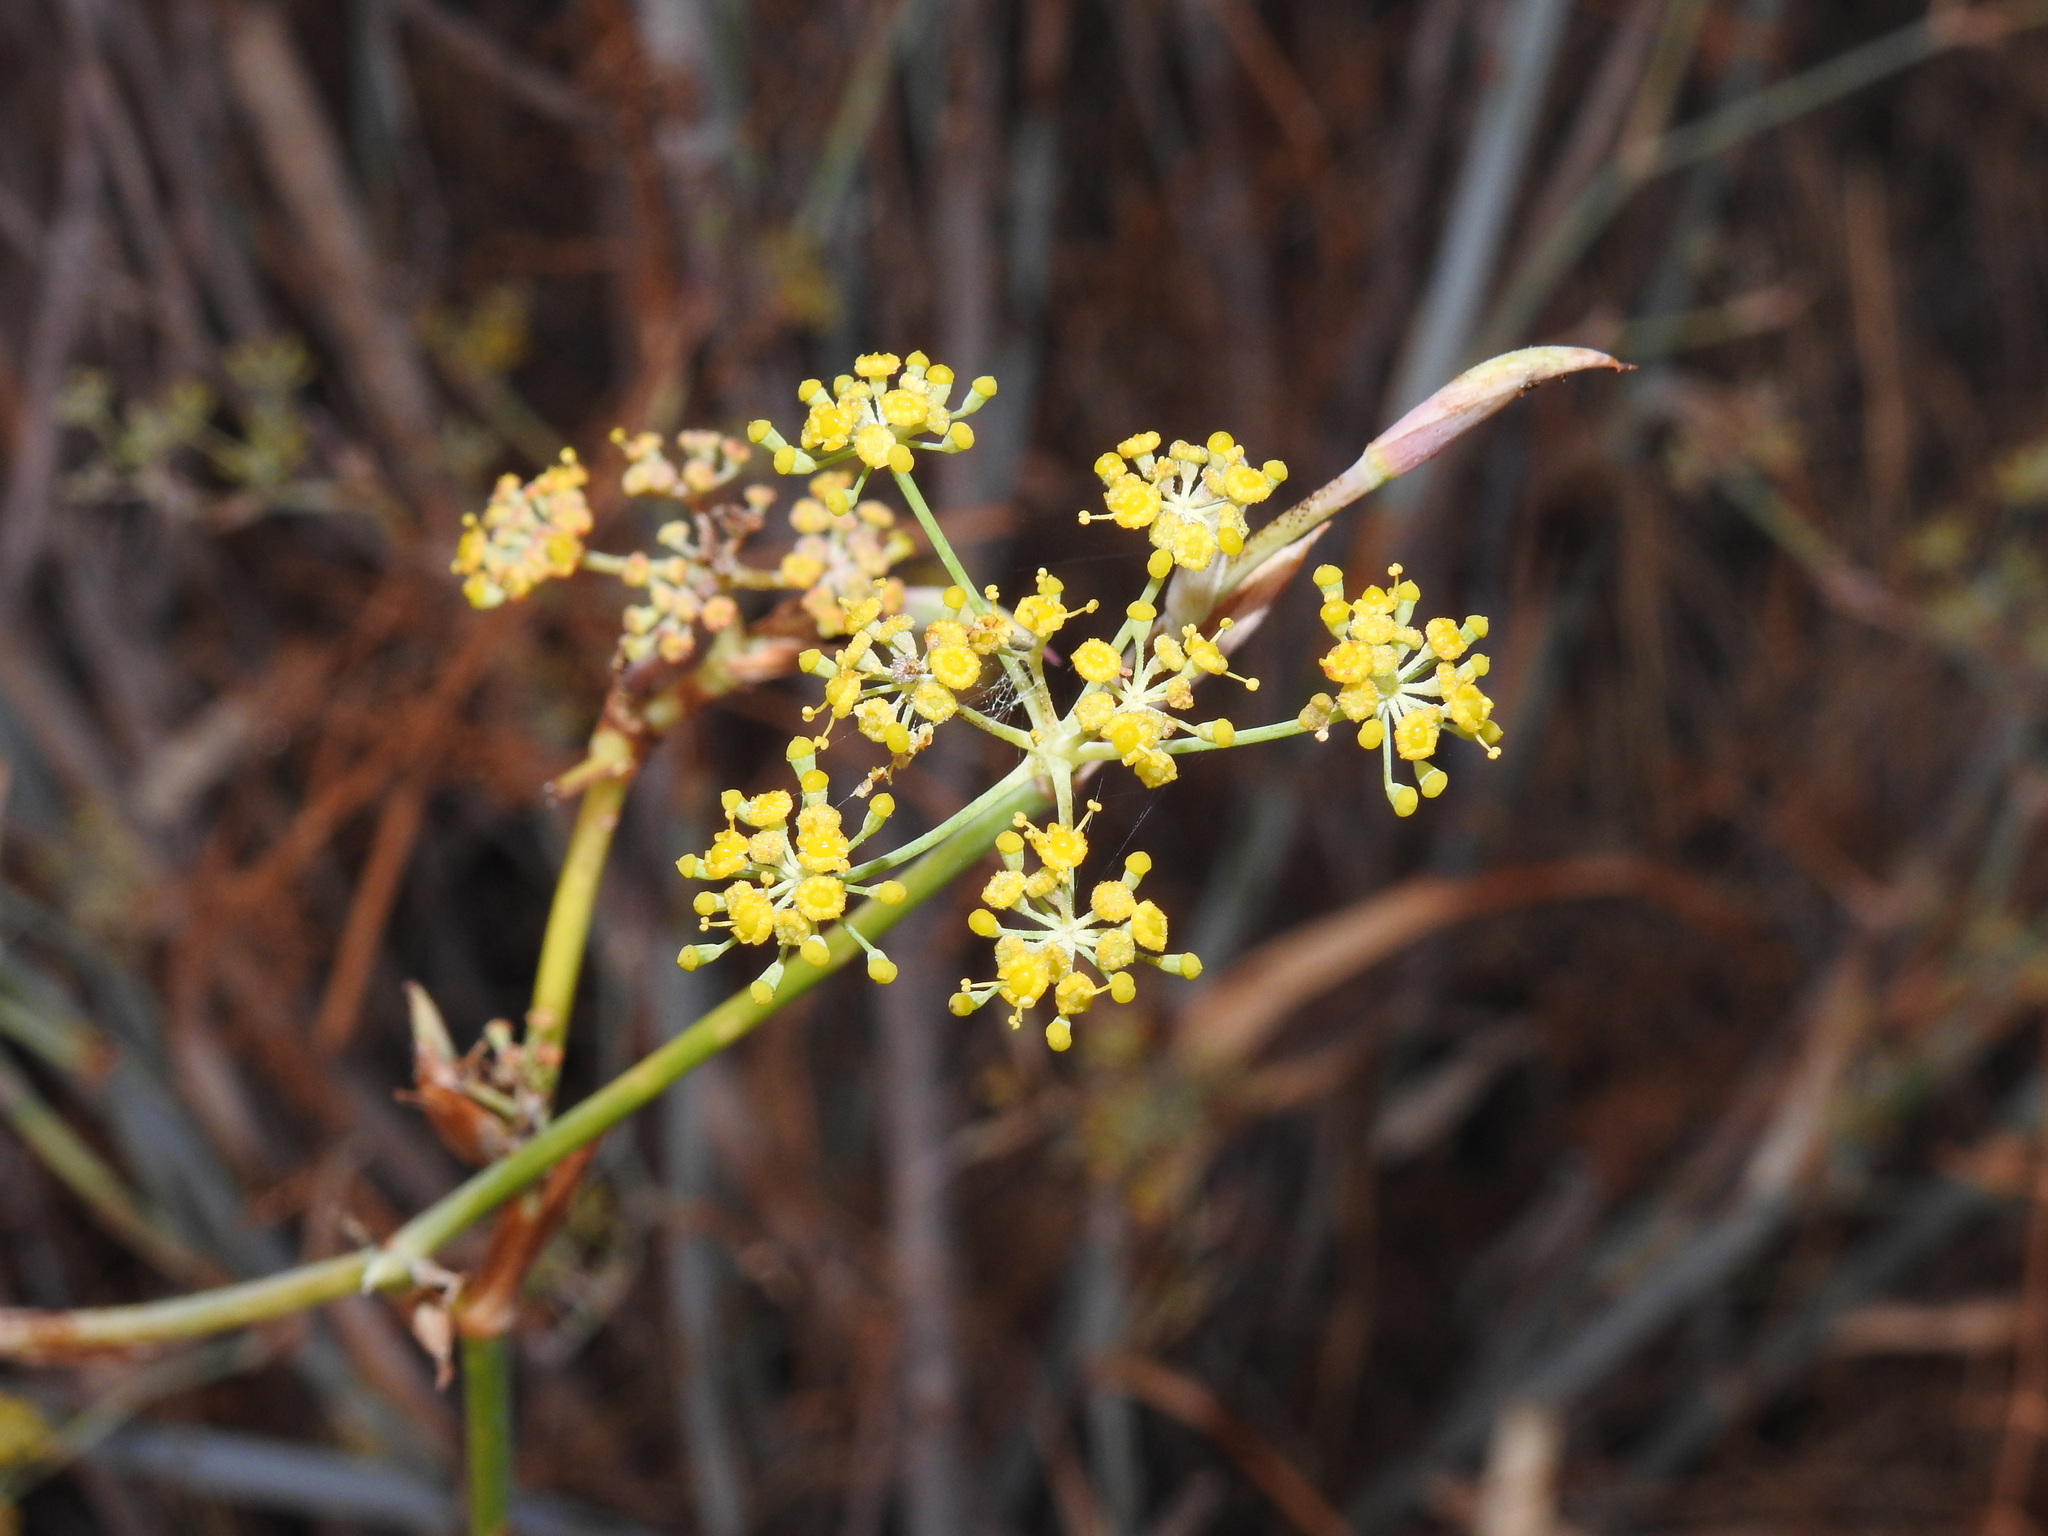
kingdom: Plantae
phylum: Tracheophyta
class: Magnoliopsida
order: Apiales
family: Apiaceae
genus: Foeniculum
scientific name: Foeniculum vulgare
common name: Fennel
